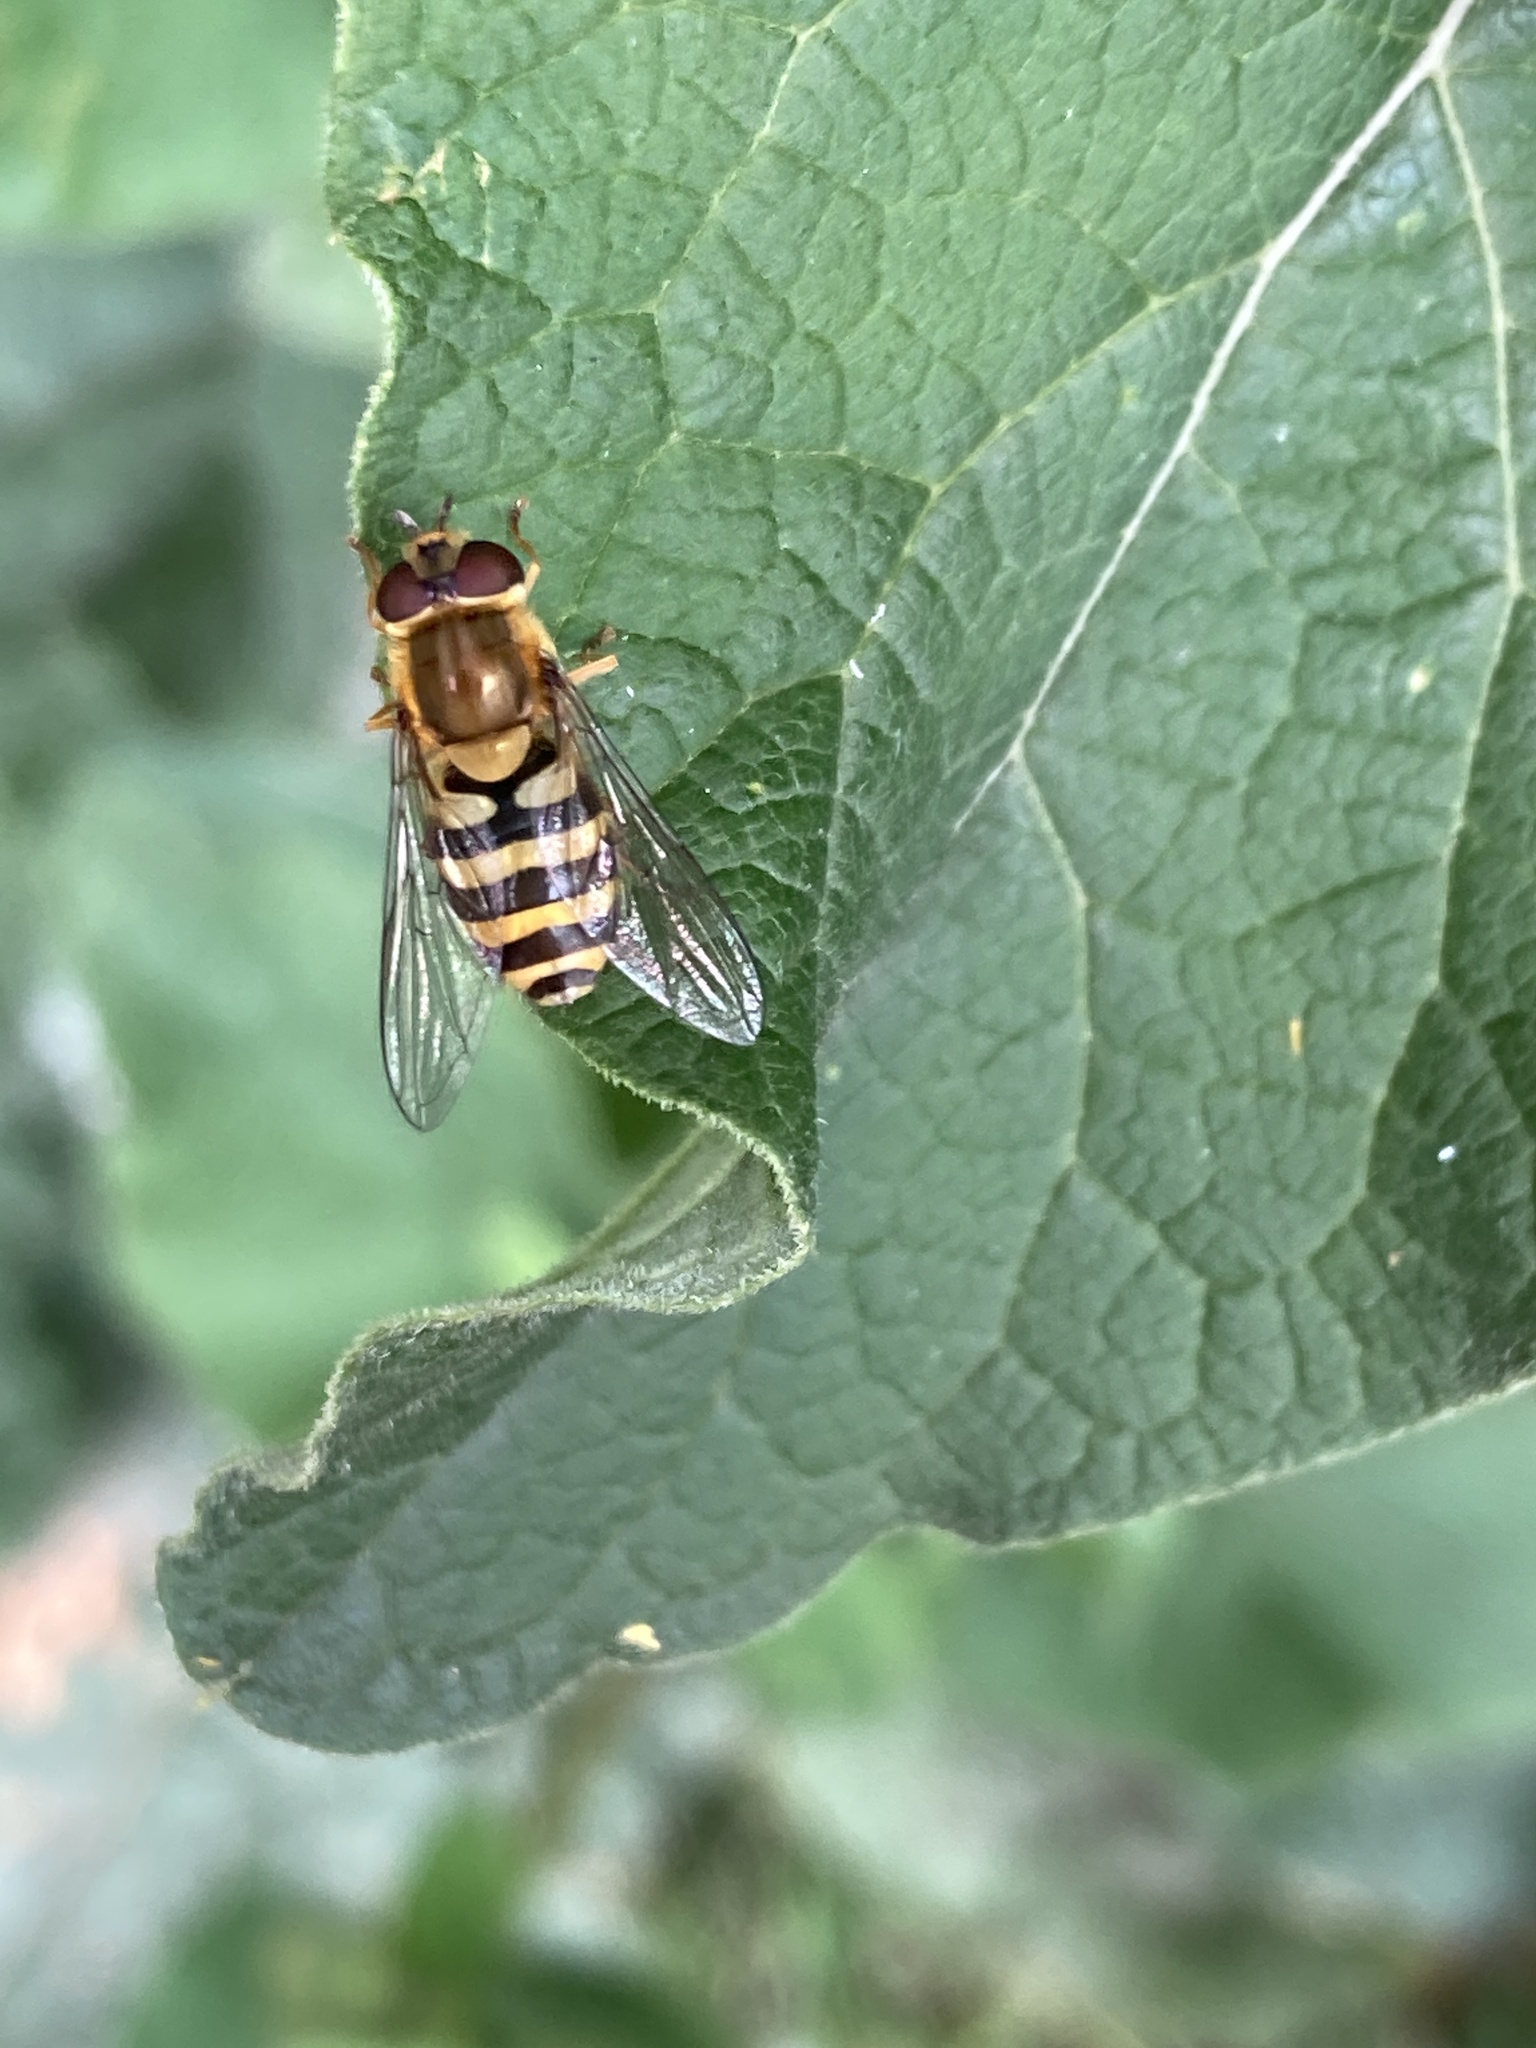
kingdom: Animalia
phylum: Arthropoda
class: Insecta
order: Diptera
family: Syrphidae
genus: Syrphus
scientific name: Syrphus
